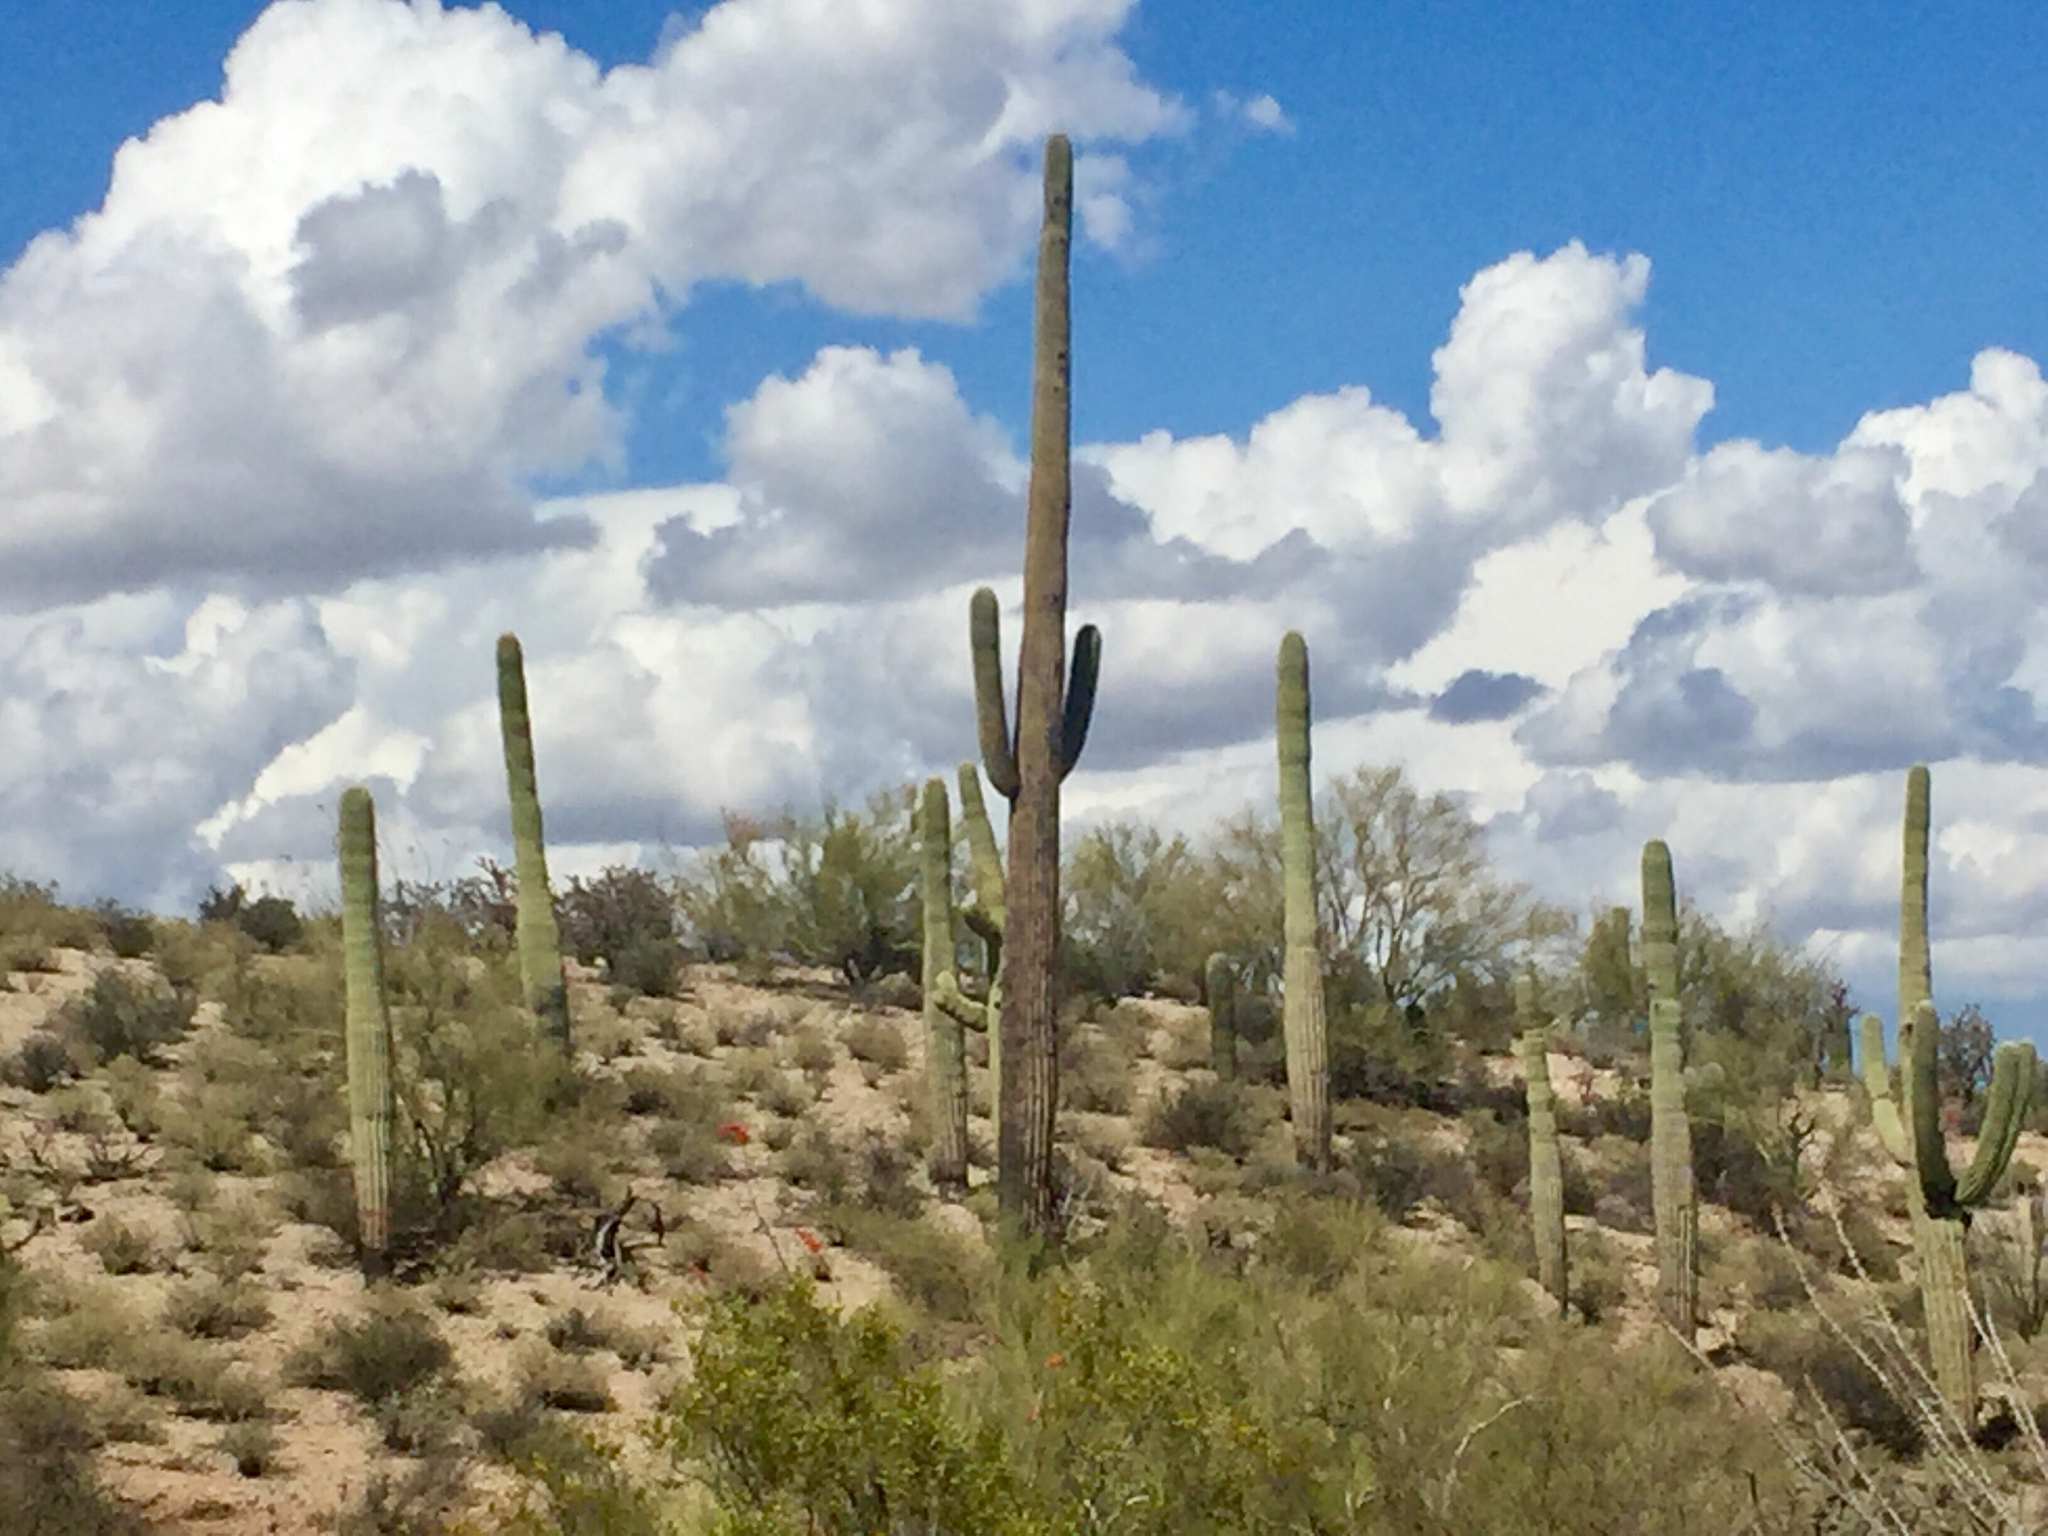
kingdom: Plantae
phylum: Tracheophyta
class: Magnoliopsida
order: Caryophyllales
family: Cactaceae
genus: Carnegiea
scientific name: Carnegiea gigantea
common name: Saguaro
